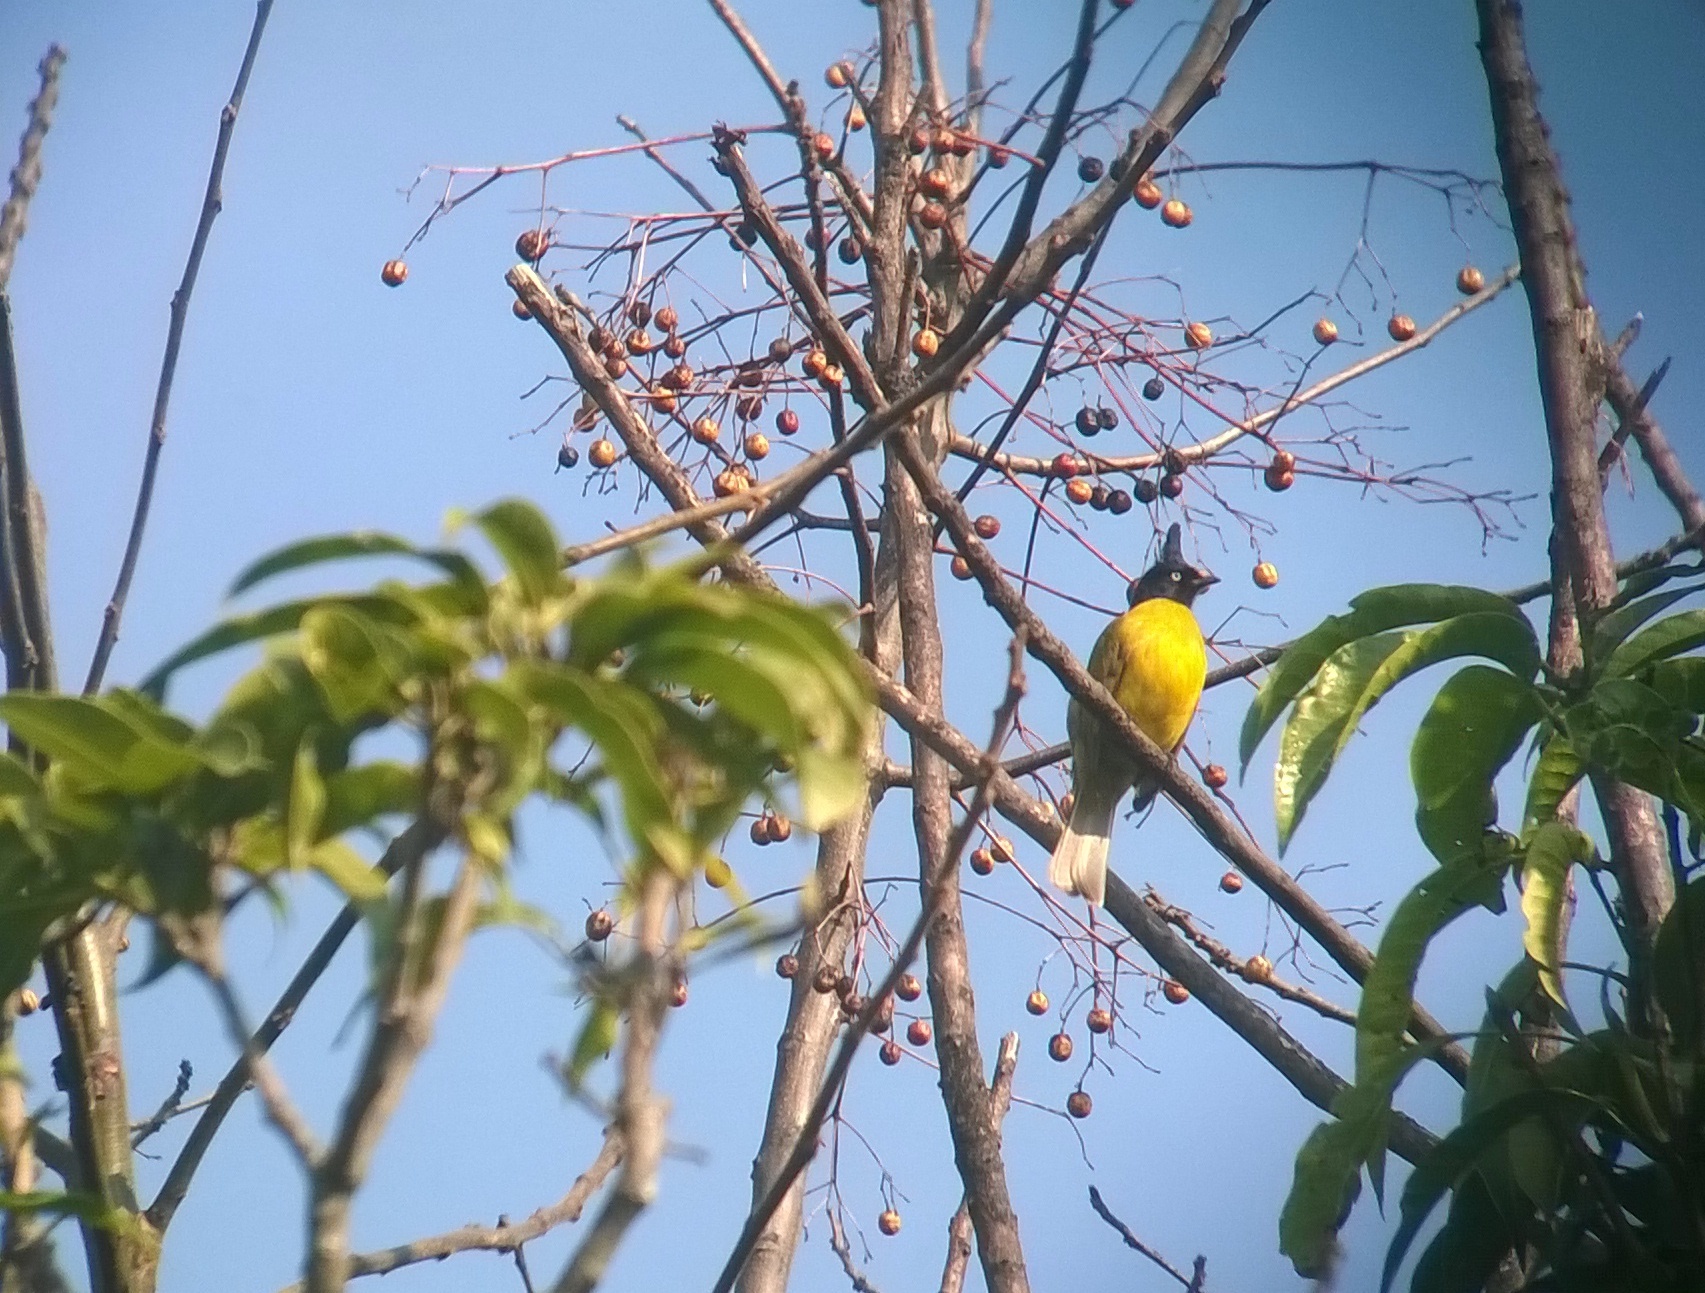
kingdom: Animalia
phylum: Chordata
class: Aves
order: Passeriformes
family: Pycnonotidae
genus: Pycnonotus
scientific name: Pycnonotus flaviventris
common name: Black-crested bulbul
